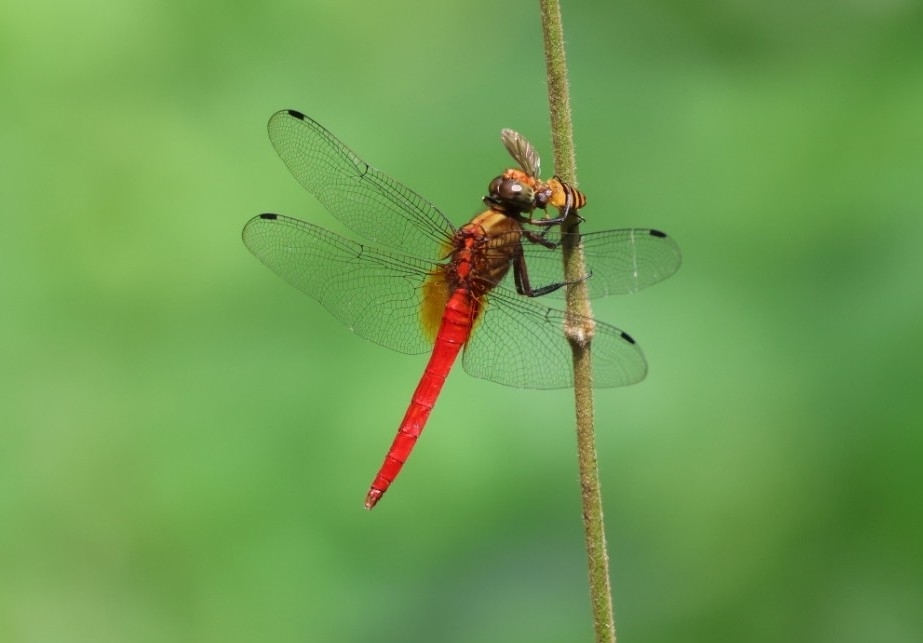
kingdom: Animalia
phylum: Arthropoda
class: Insecta
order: Odonata
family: Libellulidae
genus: Orthetrum
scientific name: Orthetrum testaceum
